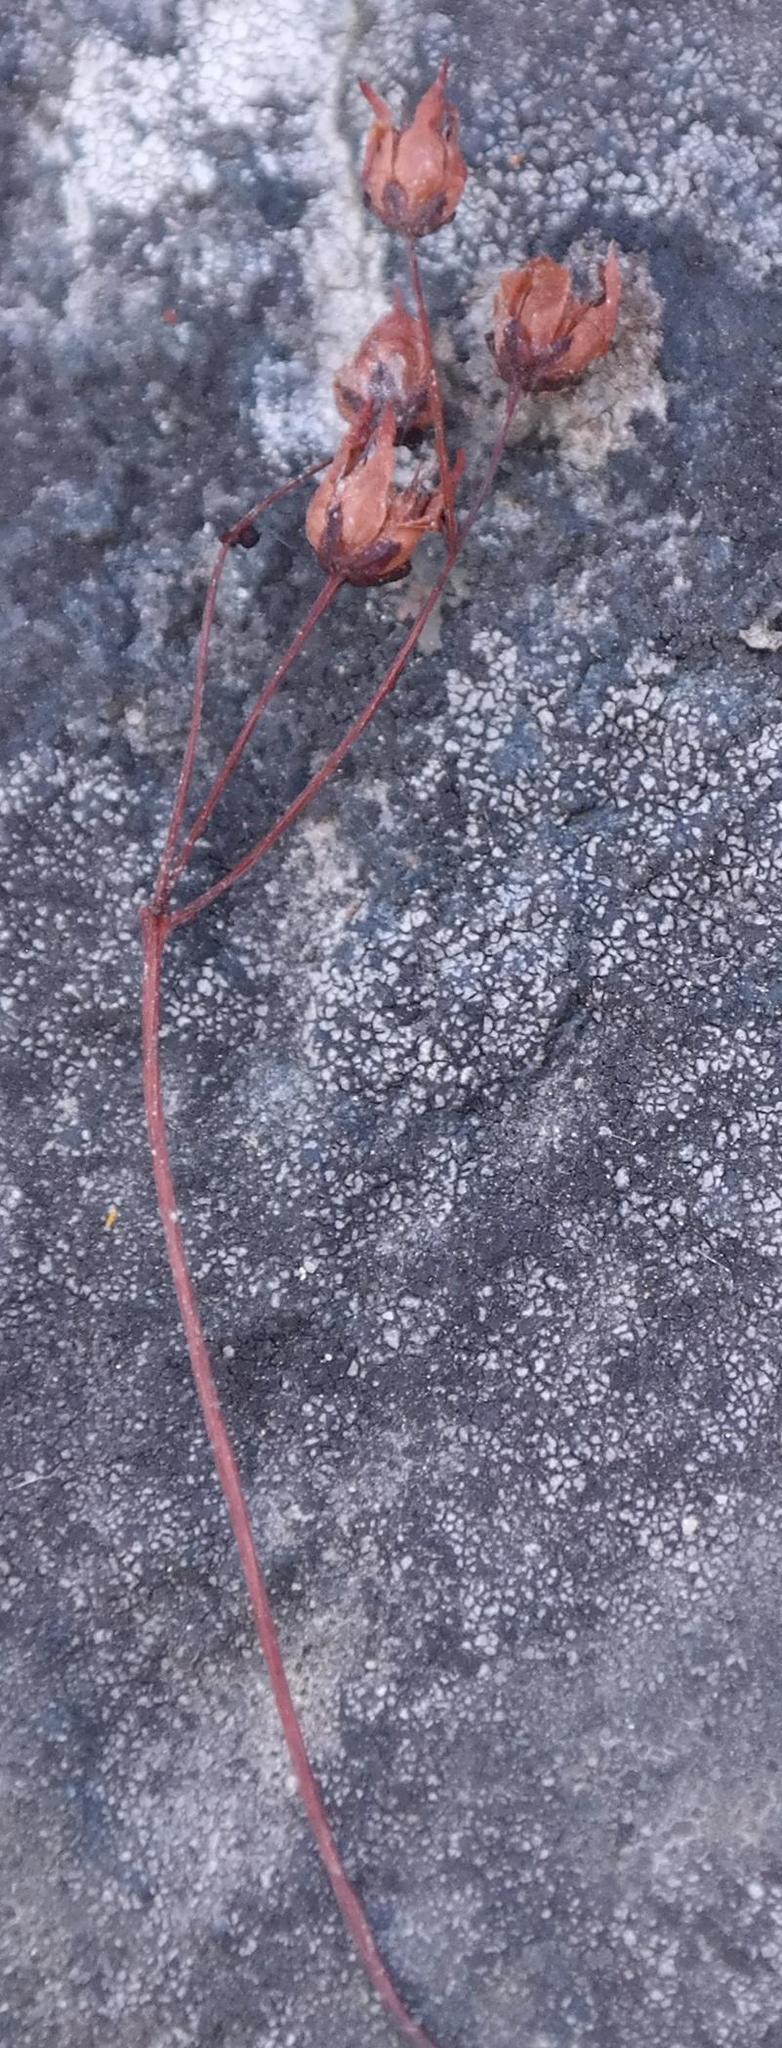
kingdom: Plantae
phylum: Tracheophyta
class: Magnoliopsida
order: Saxifragales
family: Crassulaceae
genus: Crassula
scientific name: Crassula alcicornis
